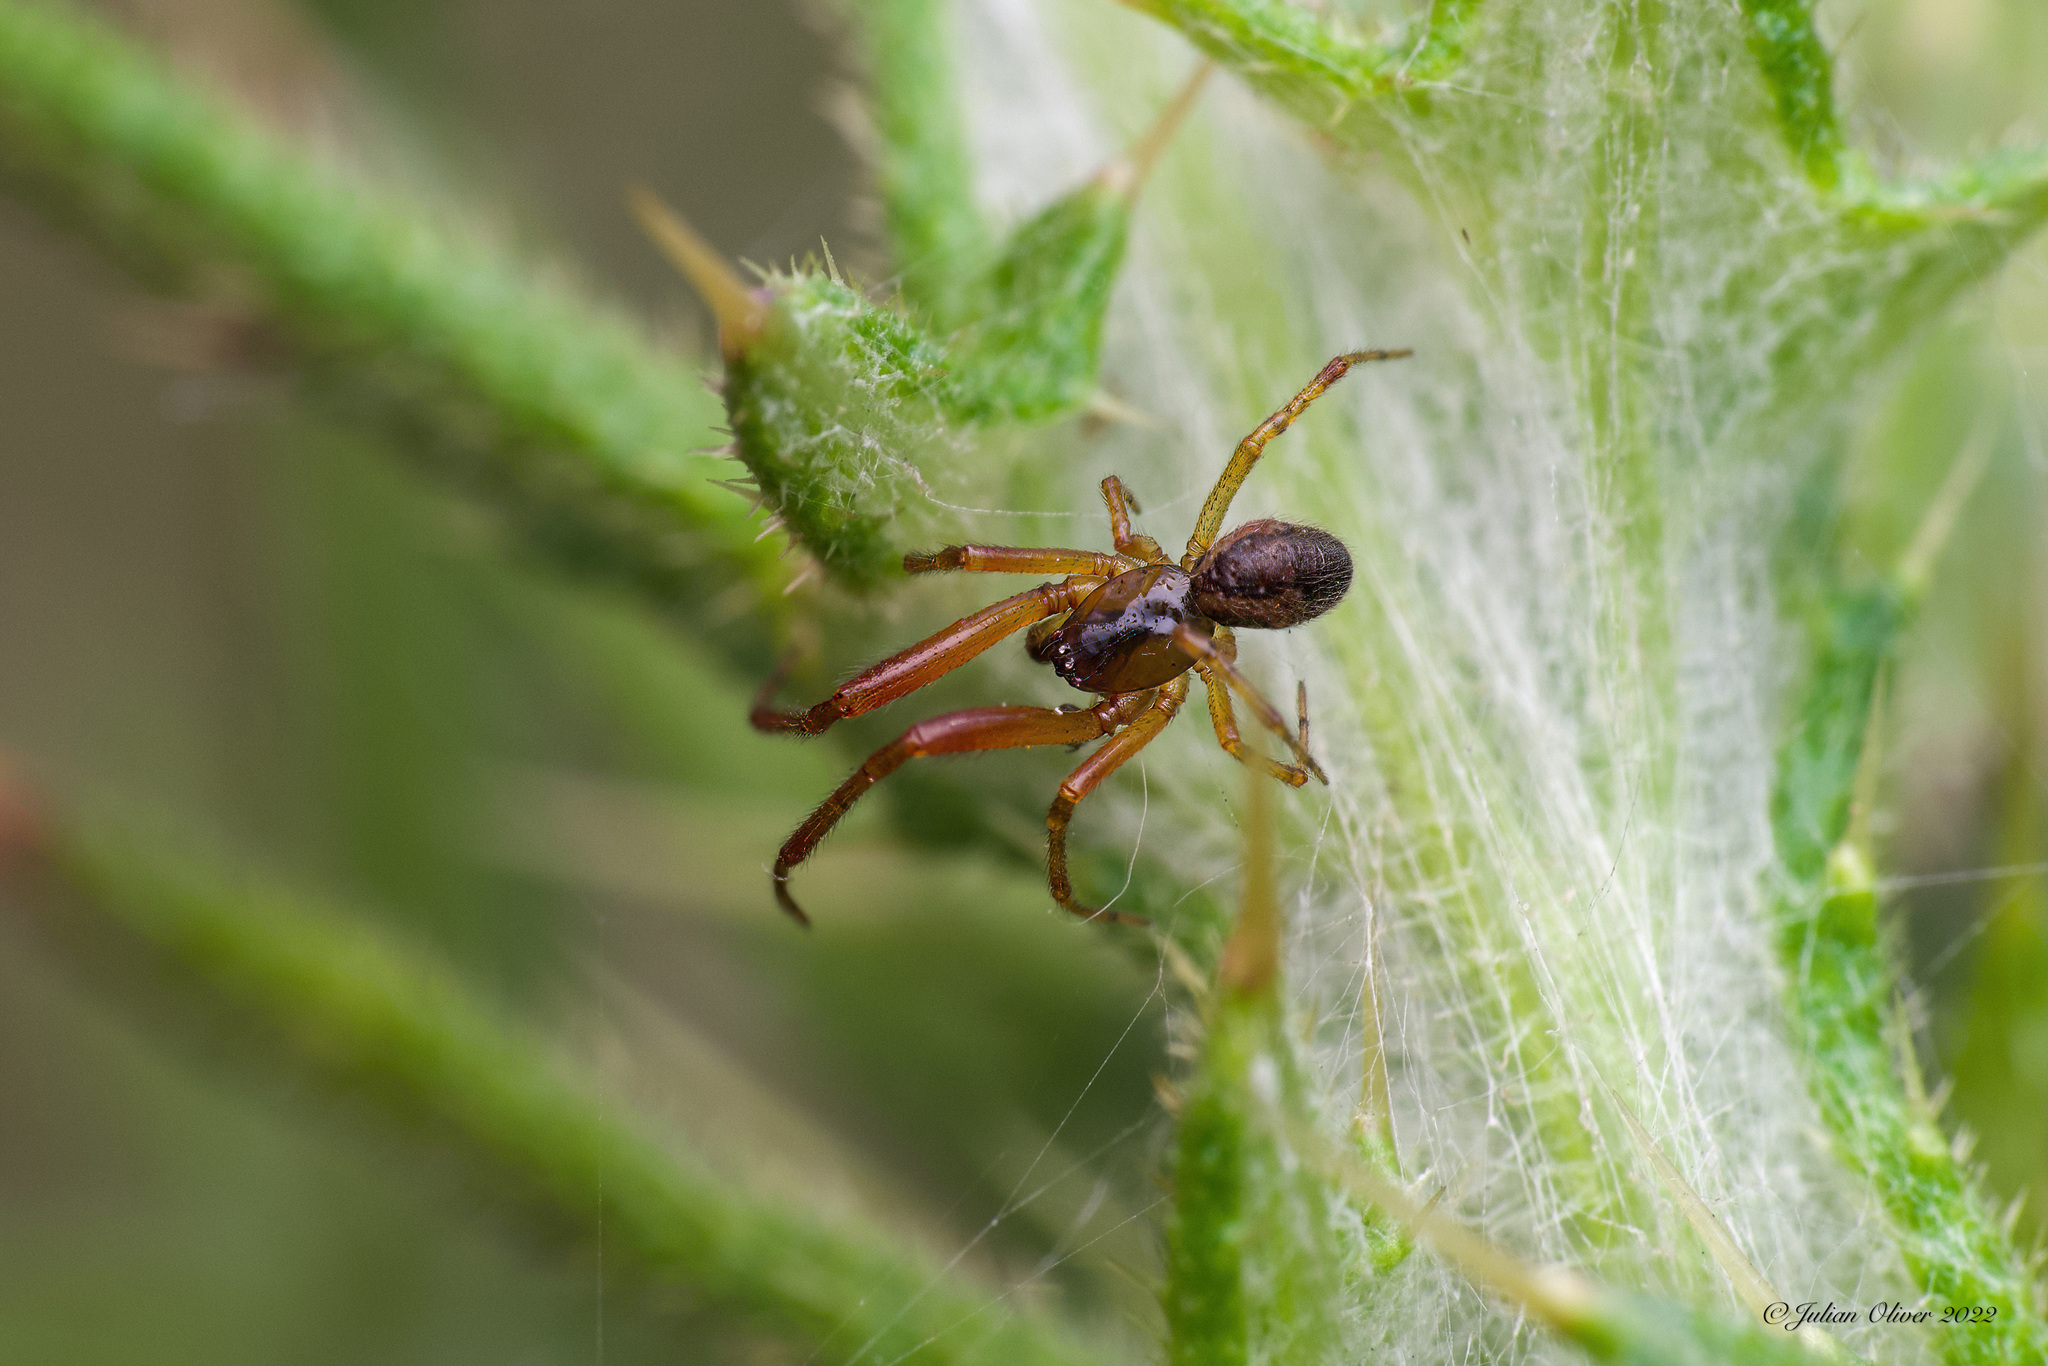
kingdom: Animalia
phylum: Arthropoda
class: Arachnida
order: Araneae
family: Theridiidae
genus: Anelosimus
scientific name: Anelosimus vittatus
